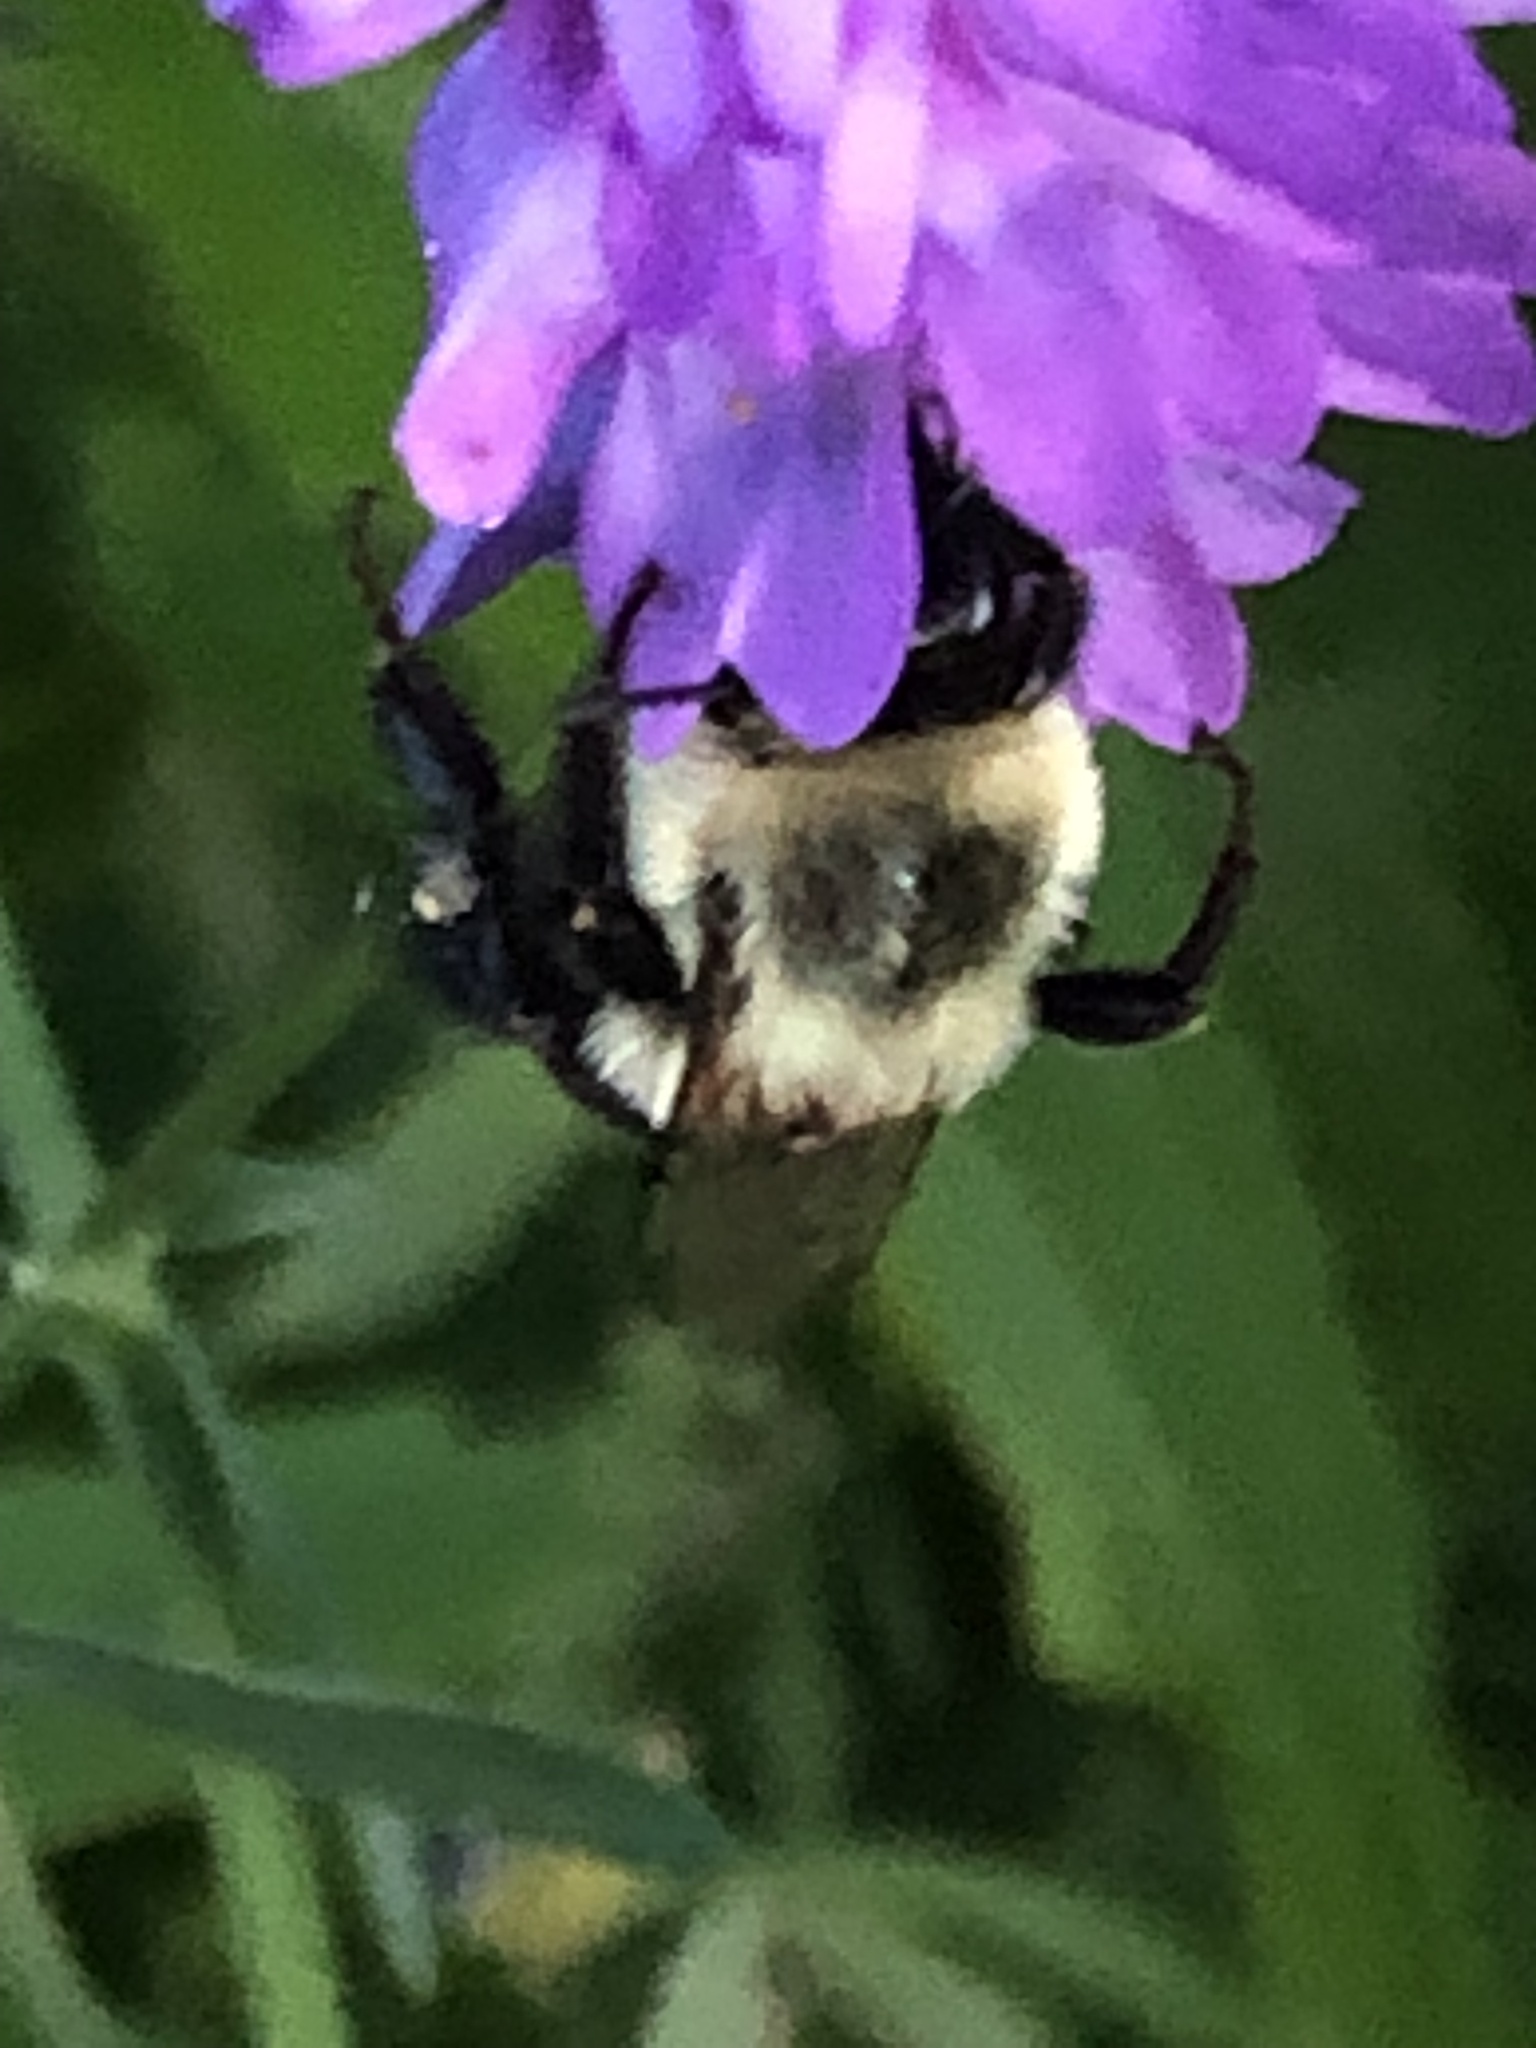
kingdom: Animalia
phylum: Arthropoda
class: Insecta
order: Hymenoptera
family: Apidae
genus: Bombus
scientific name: Bombus impatiens
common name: Common eastern bumble bee
